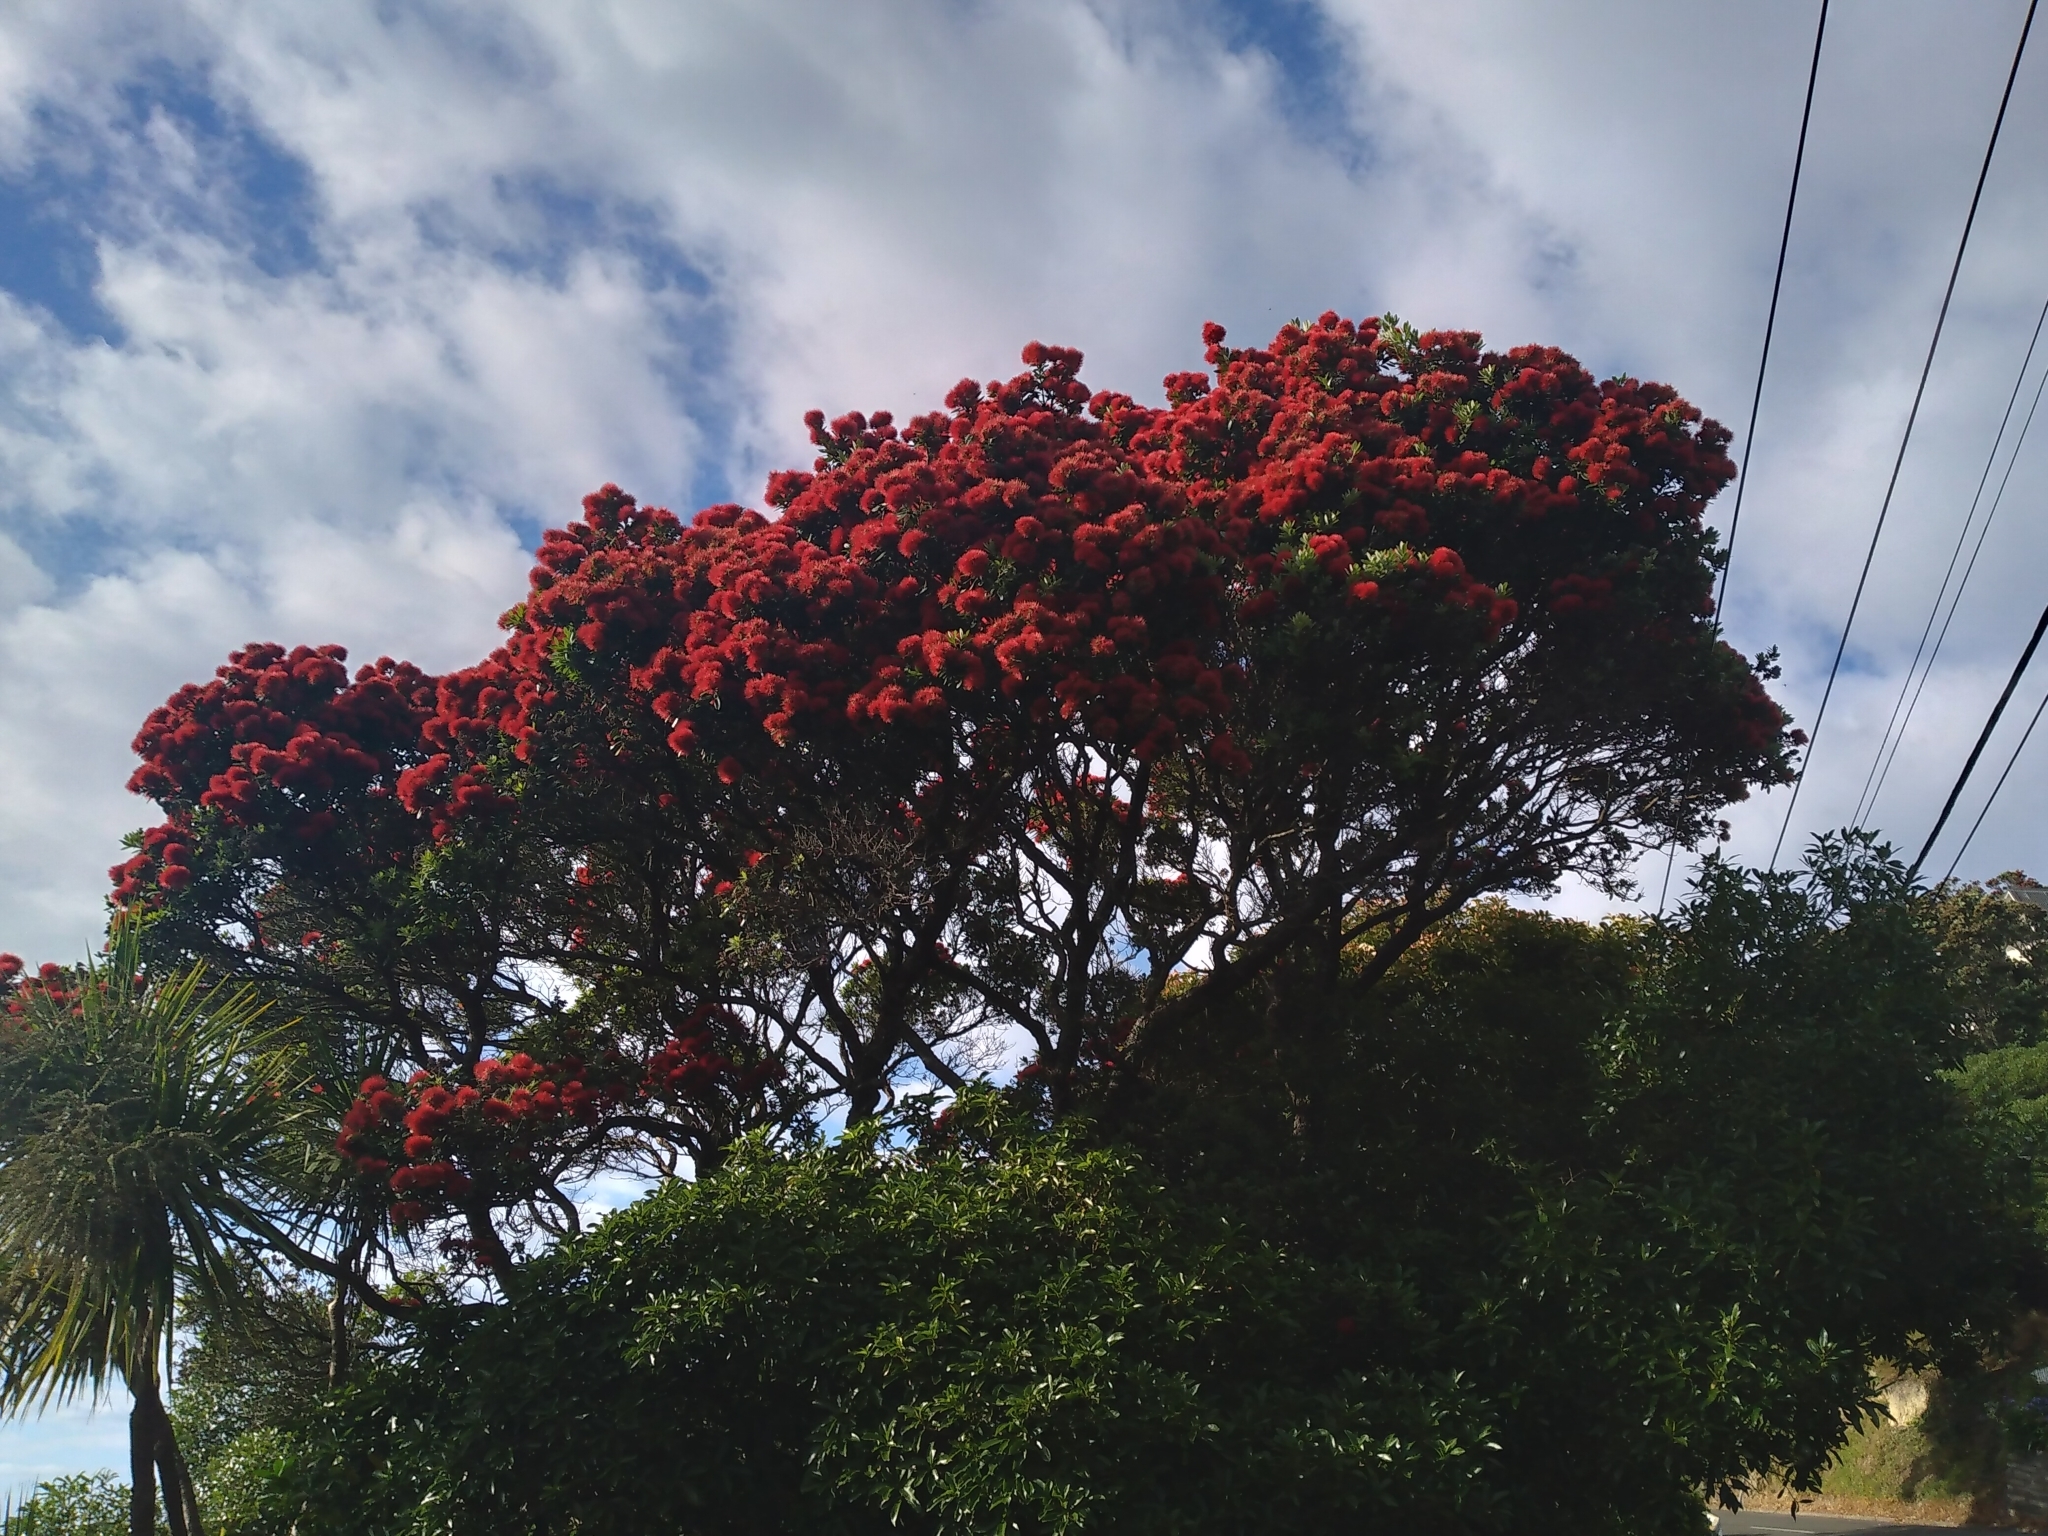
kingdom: Plantae
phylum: Tracheophyta
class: Magnoliopsida
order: Myrtales
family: Myrtaceae
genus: Metrosideros
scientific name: Metrosideros excelsa
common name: New zealand christmastree
